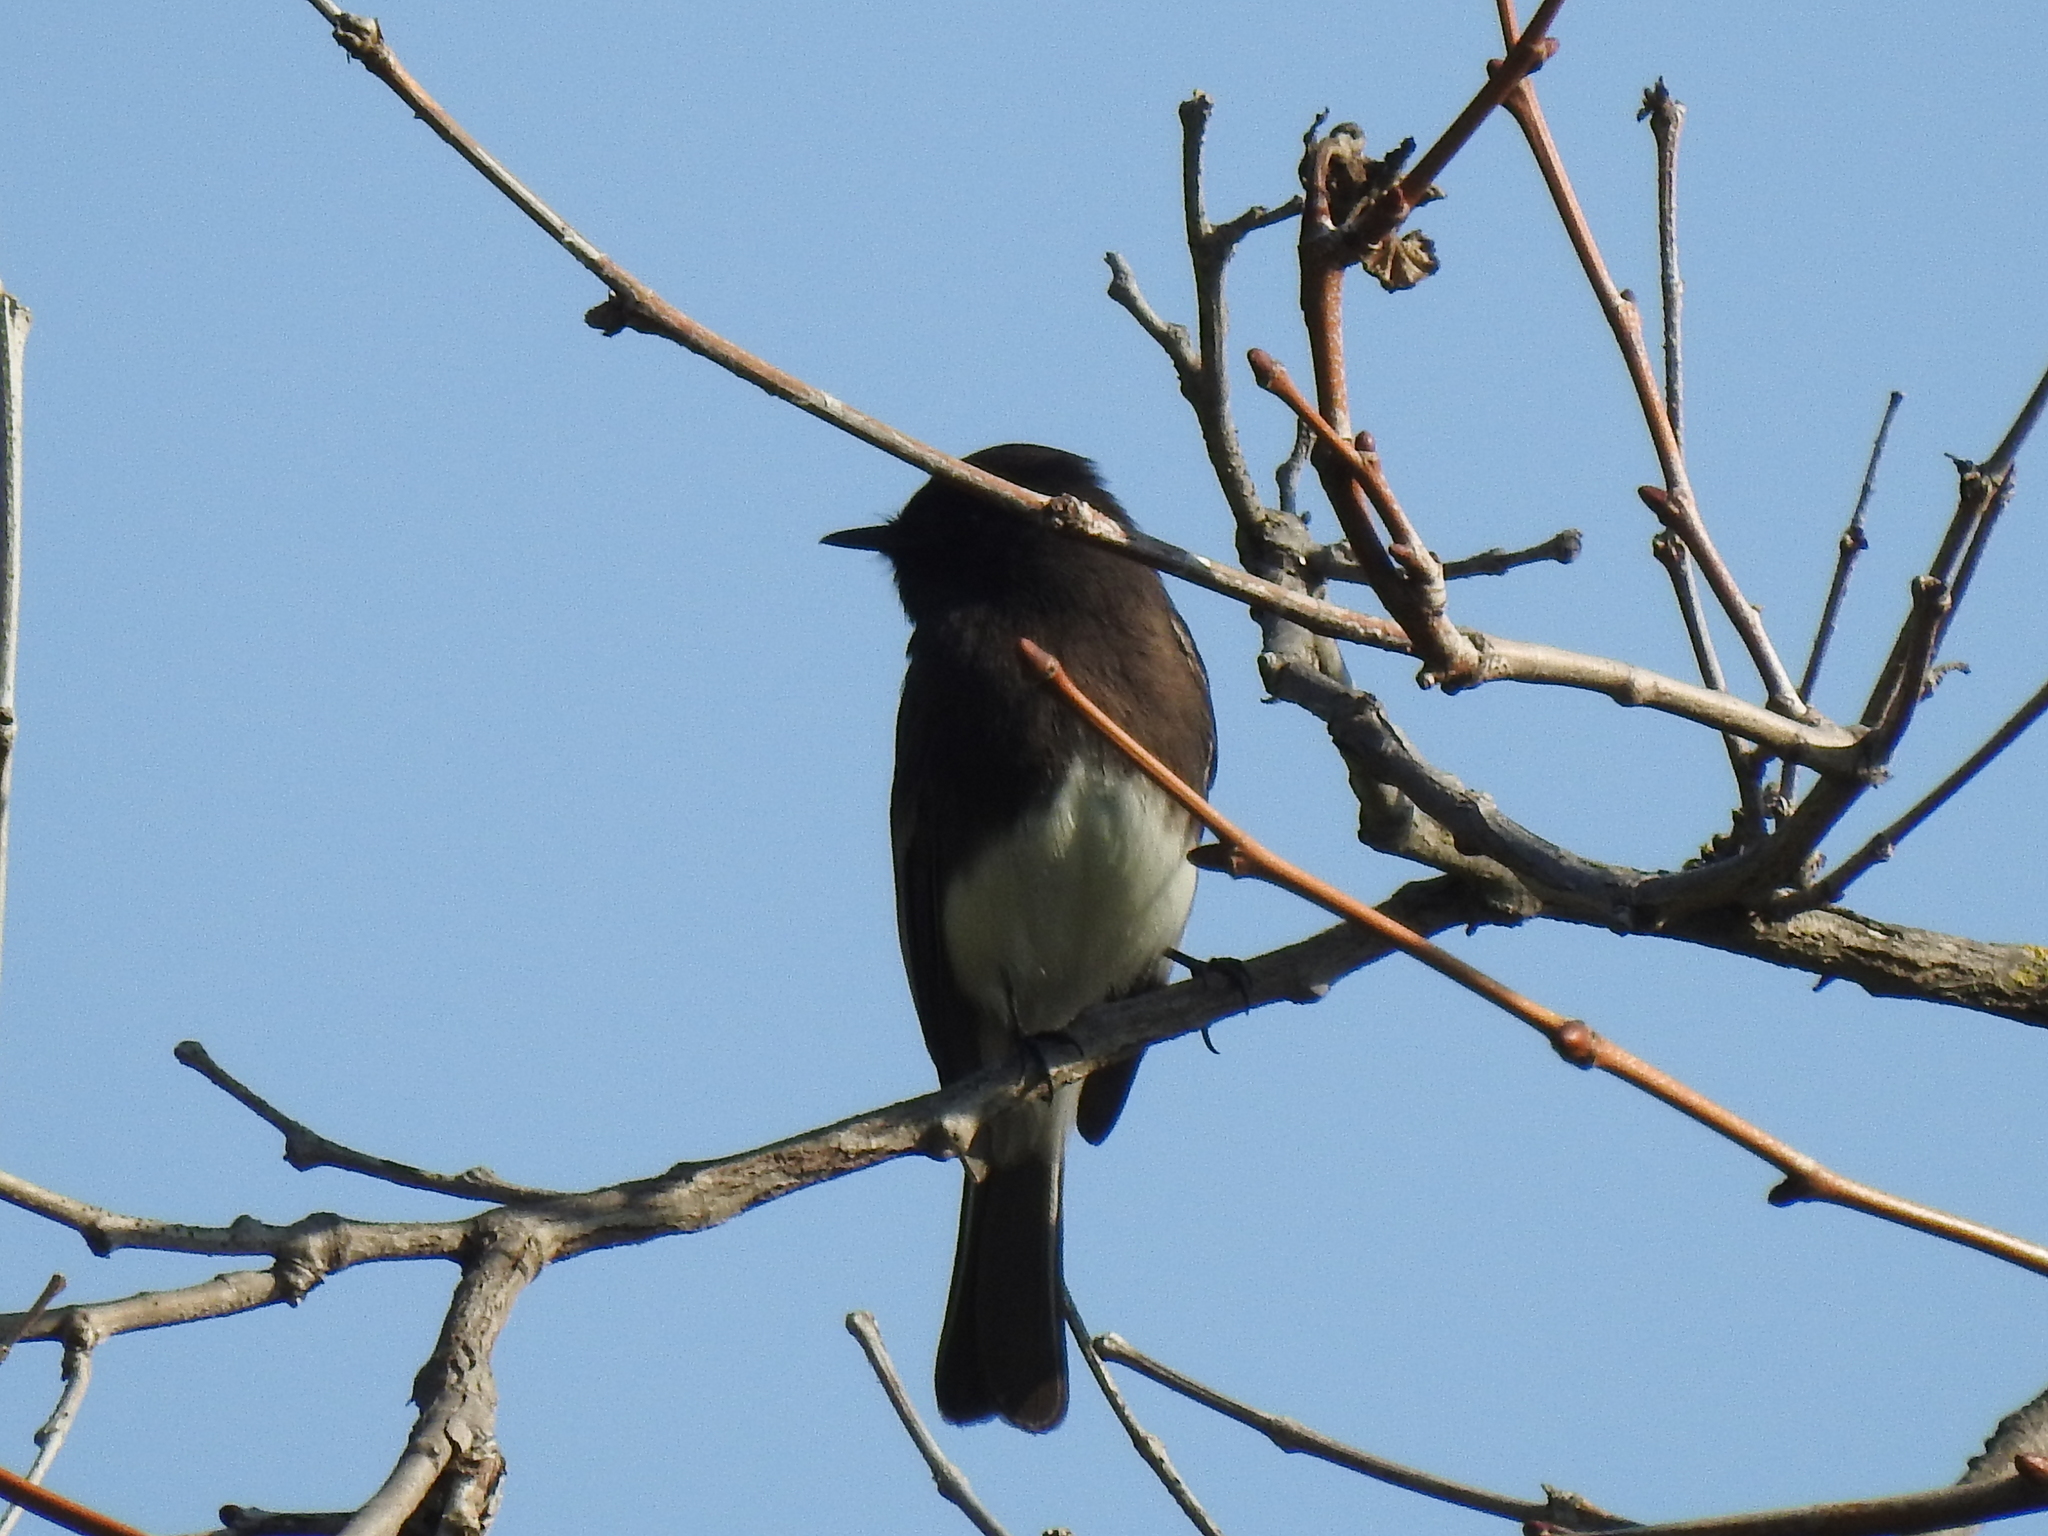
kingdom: Animalia
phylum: Chordata
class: Aves
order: Passeriformes
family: Tyrannidae
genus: Sayornis
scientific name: Sayornis nigricans
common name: Black phoebe
